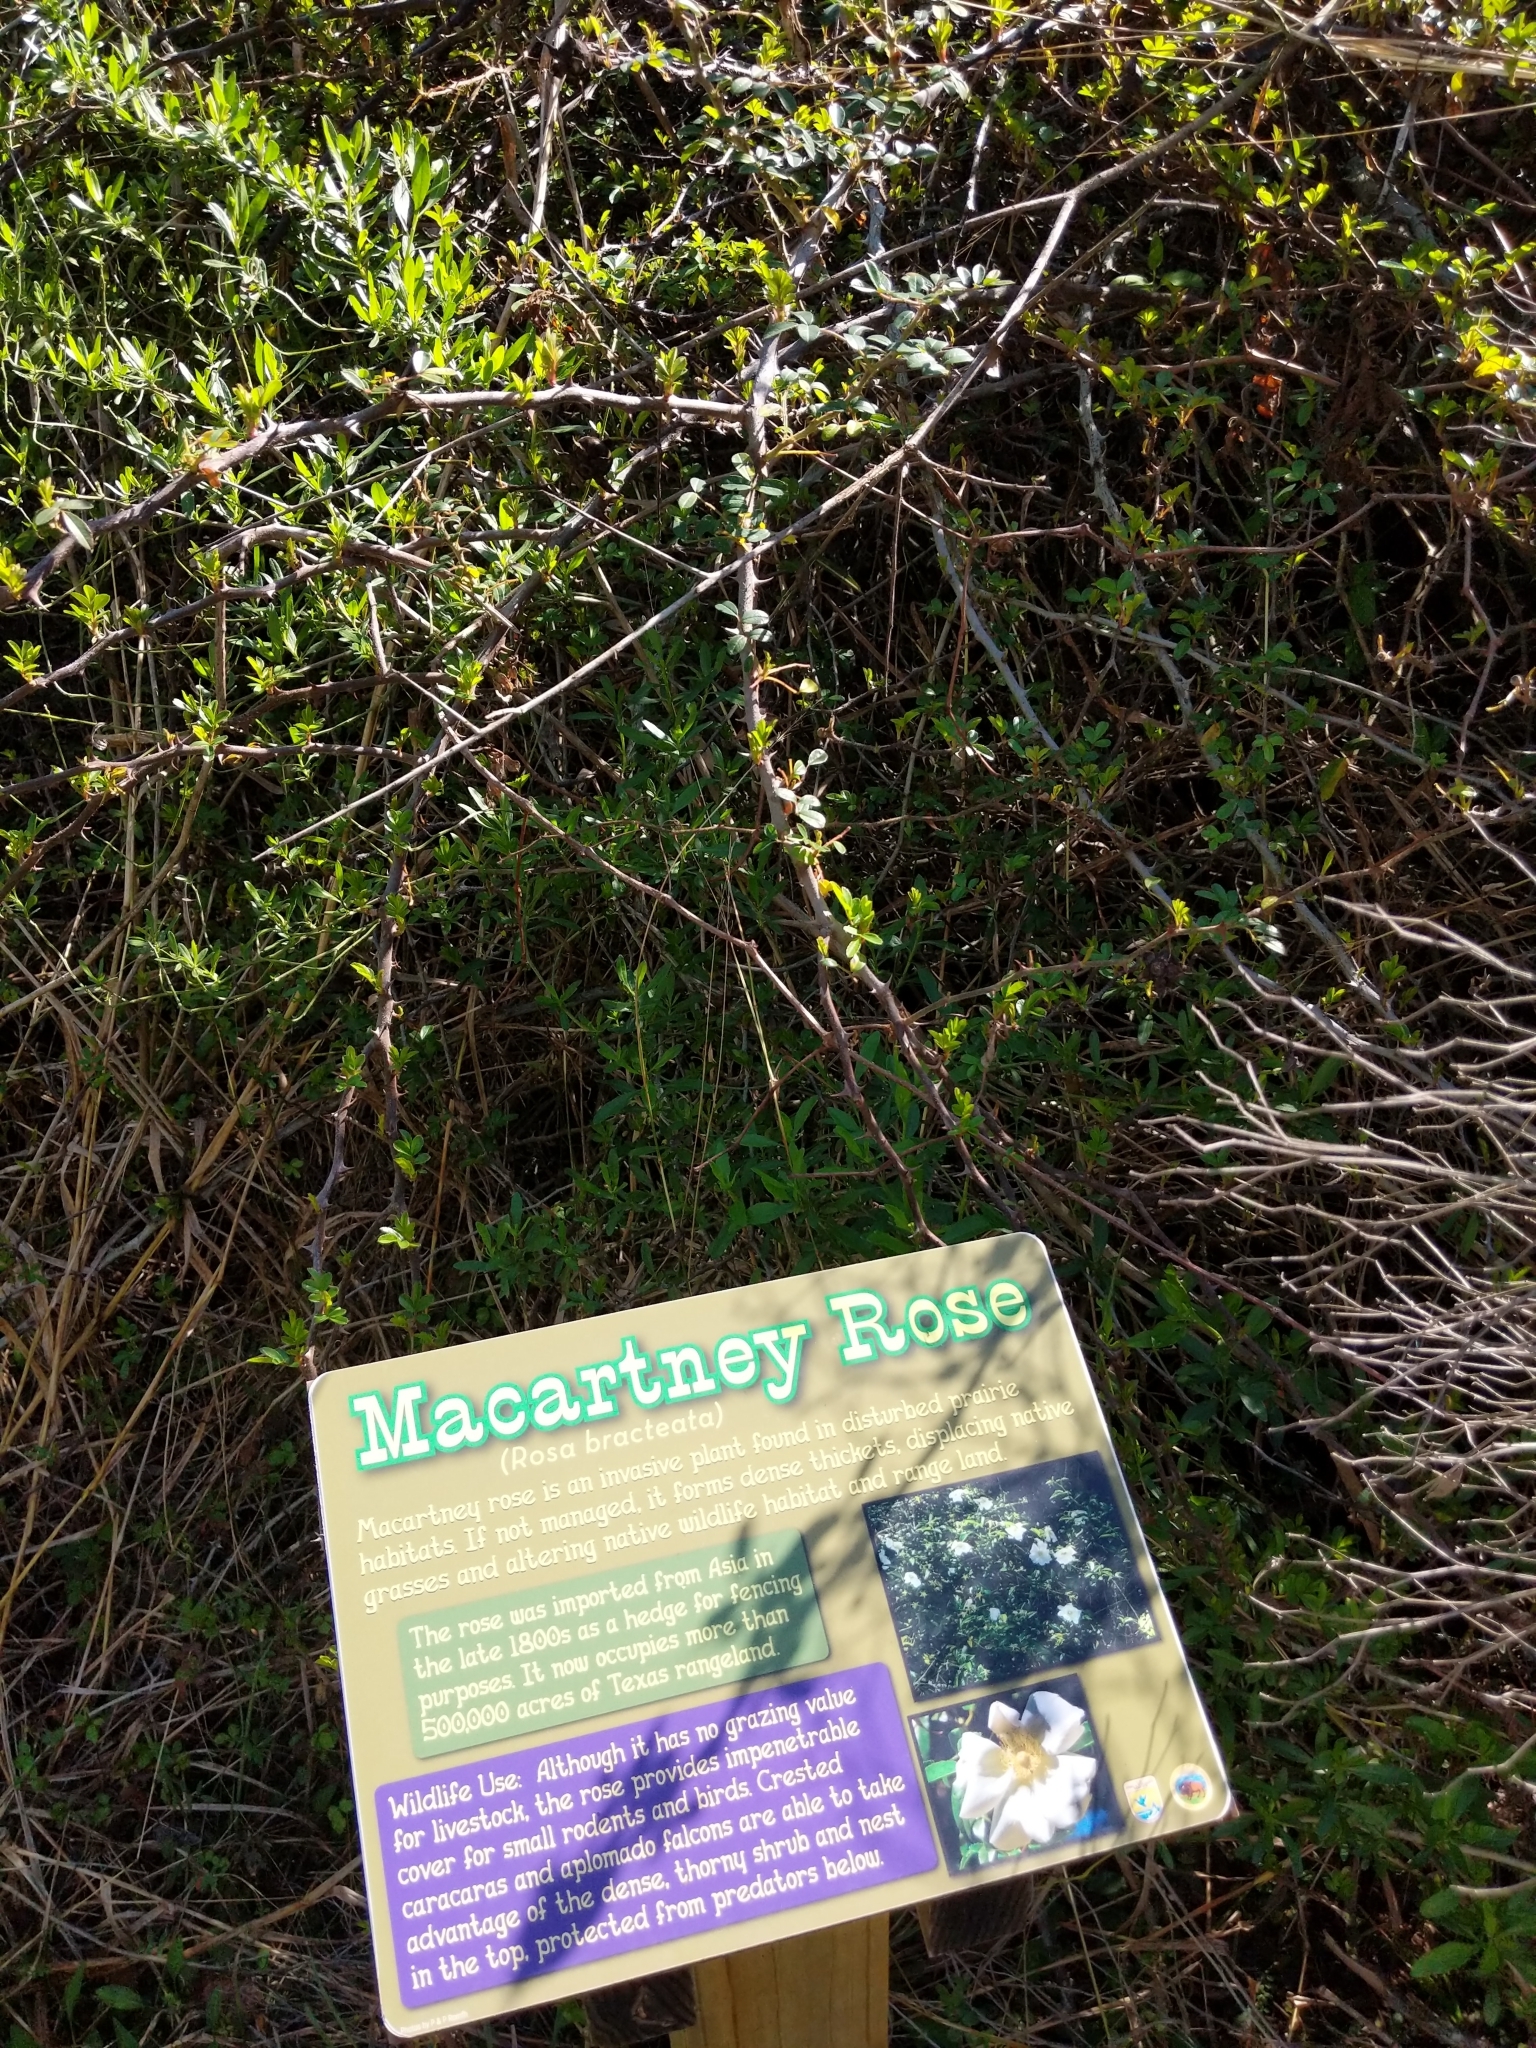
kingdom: Plantae
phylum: Tracheophyta
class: Magnoliopsida
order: Rosales
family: Rosaceae
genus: Rosa
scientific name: Rosa bracteata
